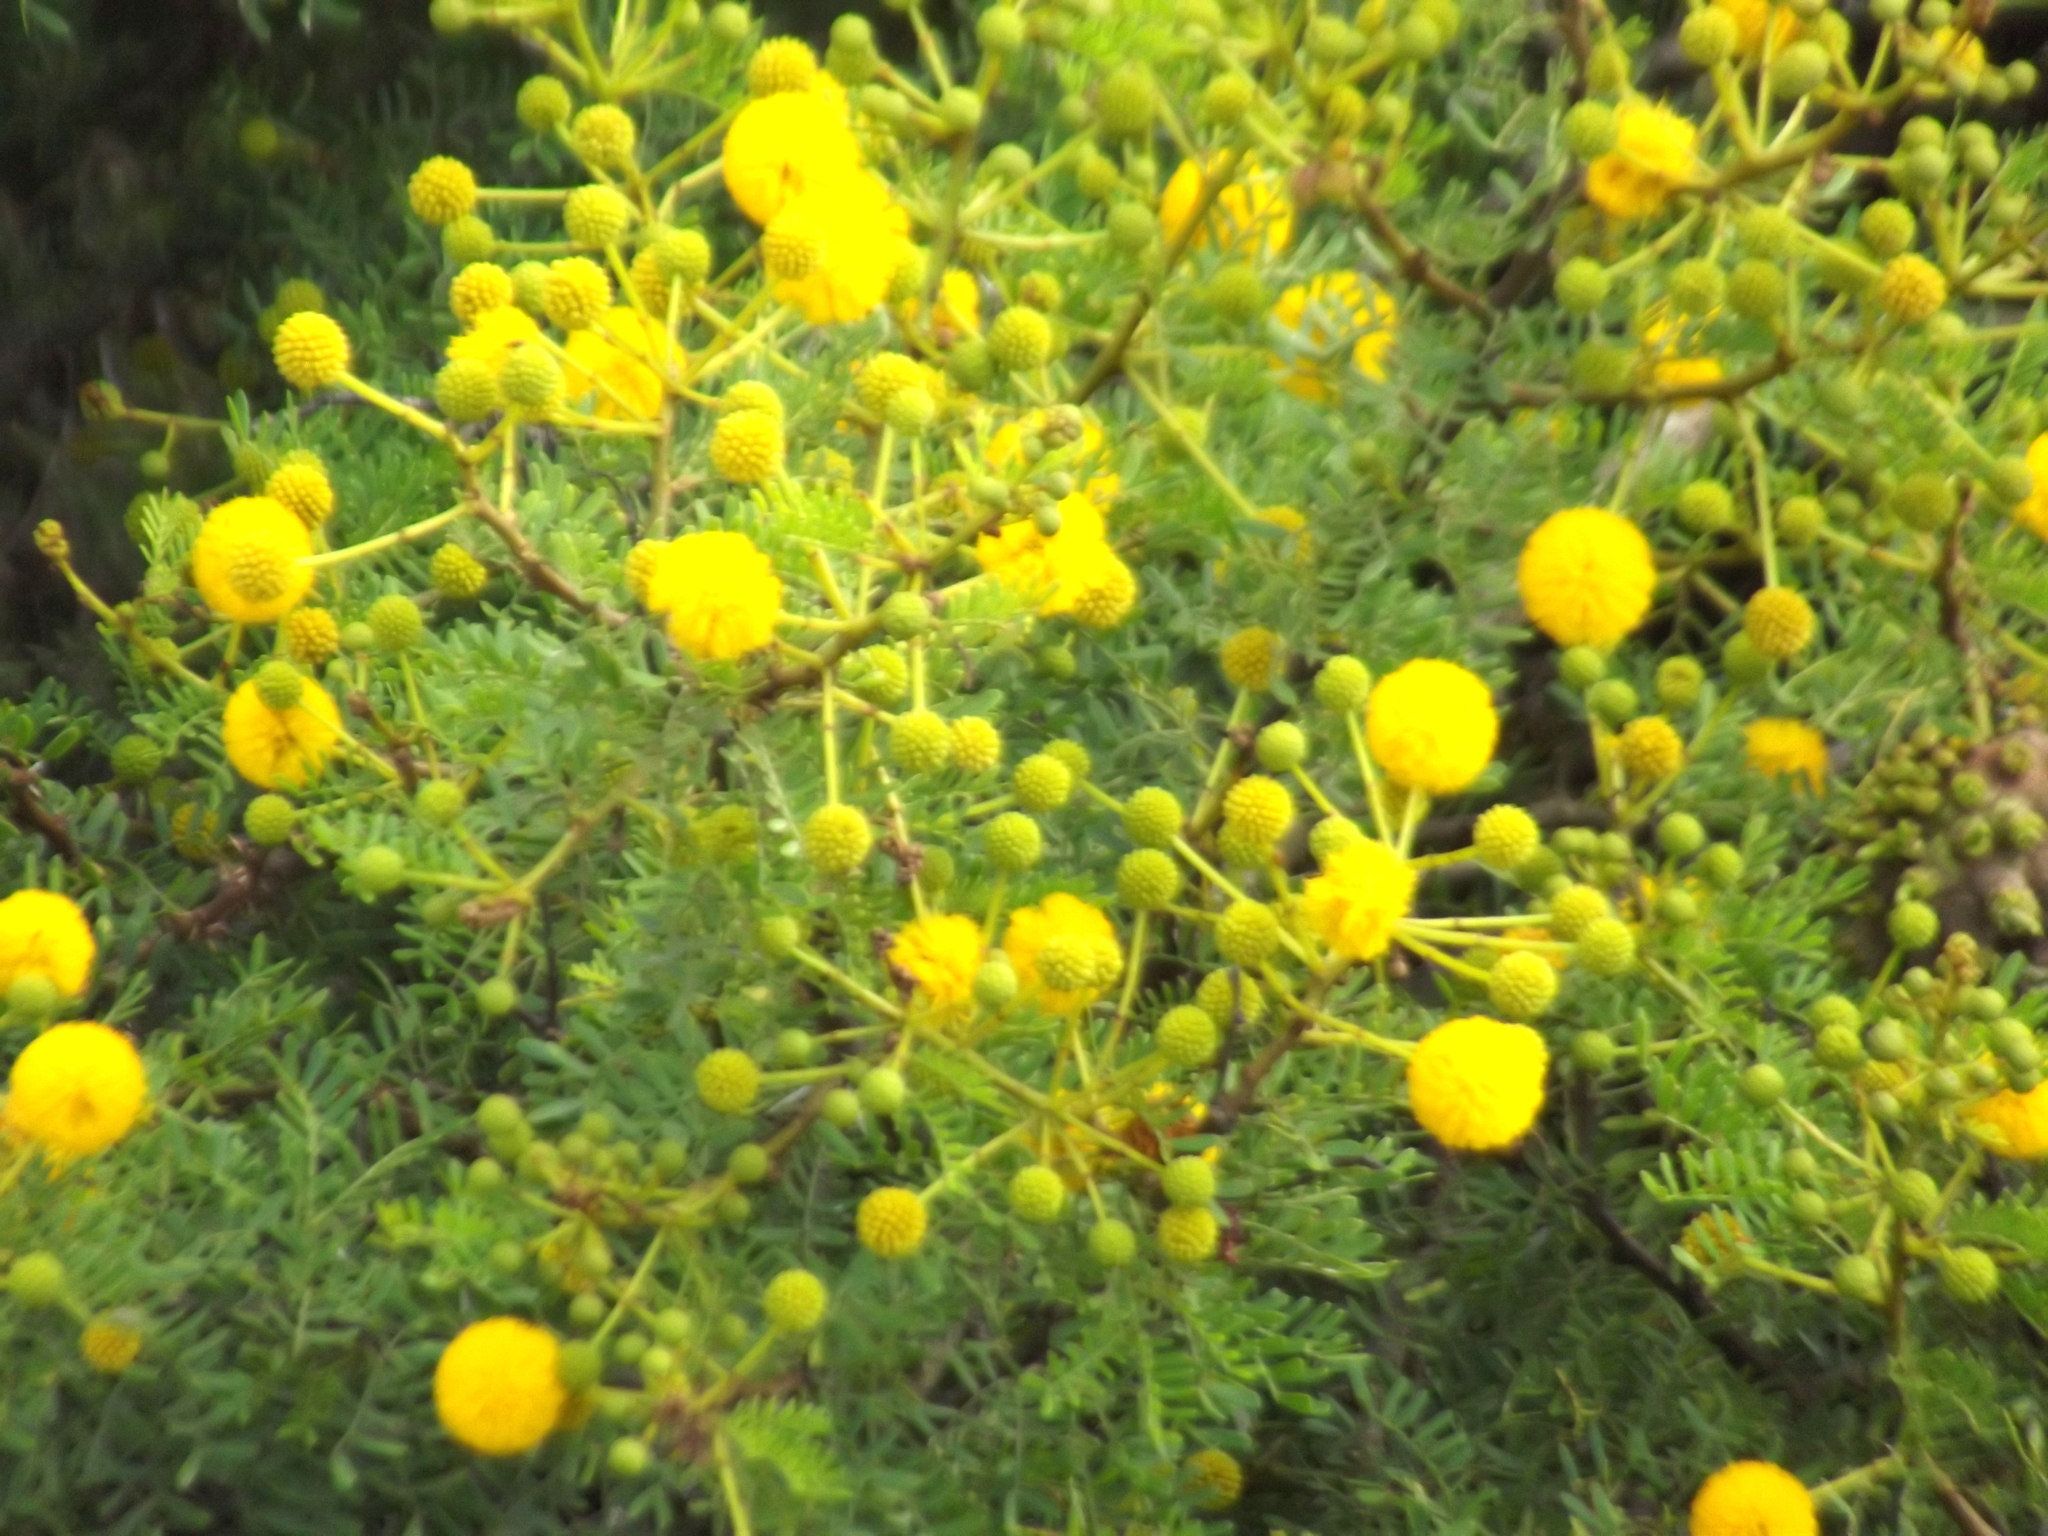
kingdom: Plantae
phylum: Tracheophyta
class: Magnoliopsida
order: Fabales
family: Fabaceae
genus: Vachellia
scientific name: Vachellia karroo
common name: Sweet thorn
